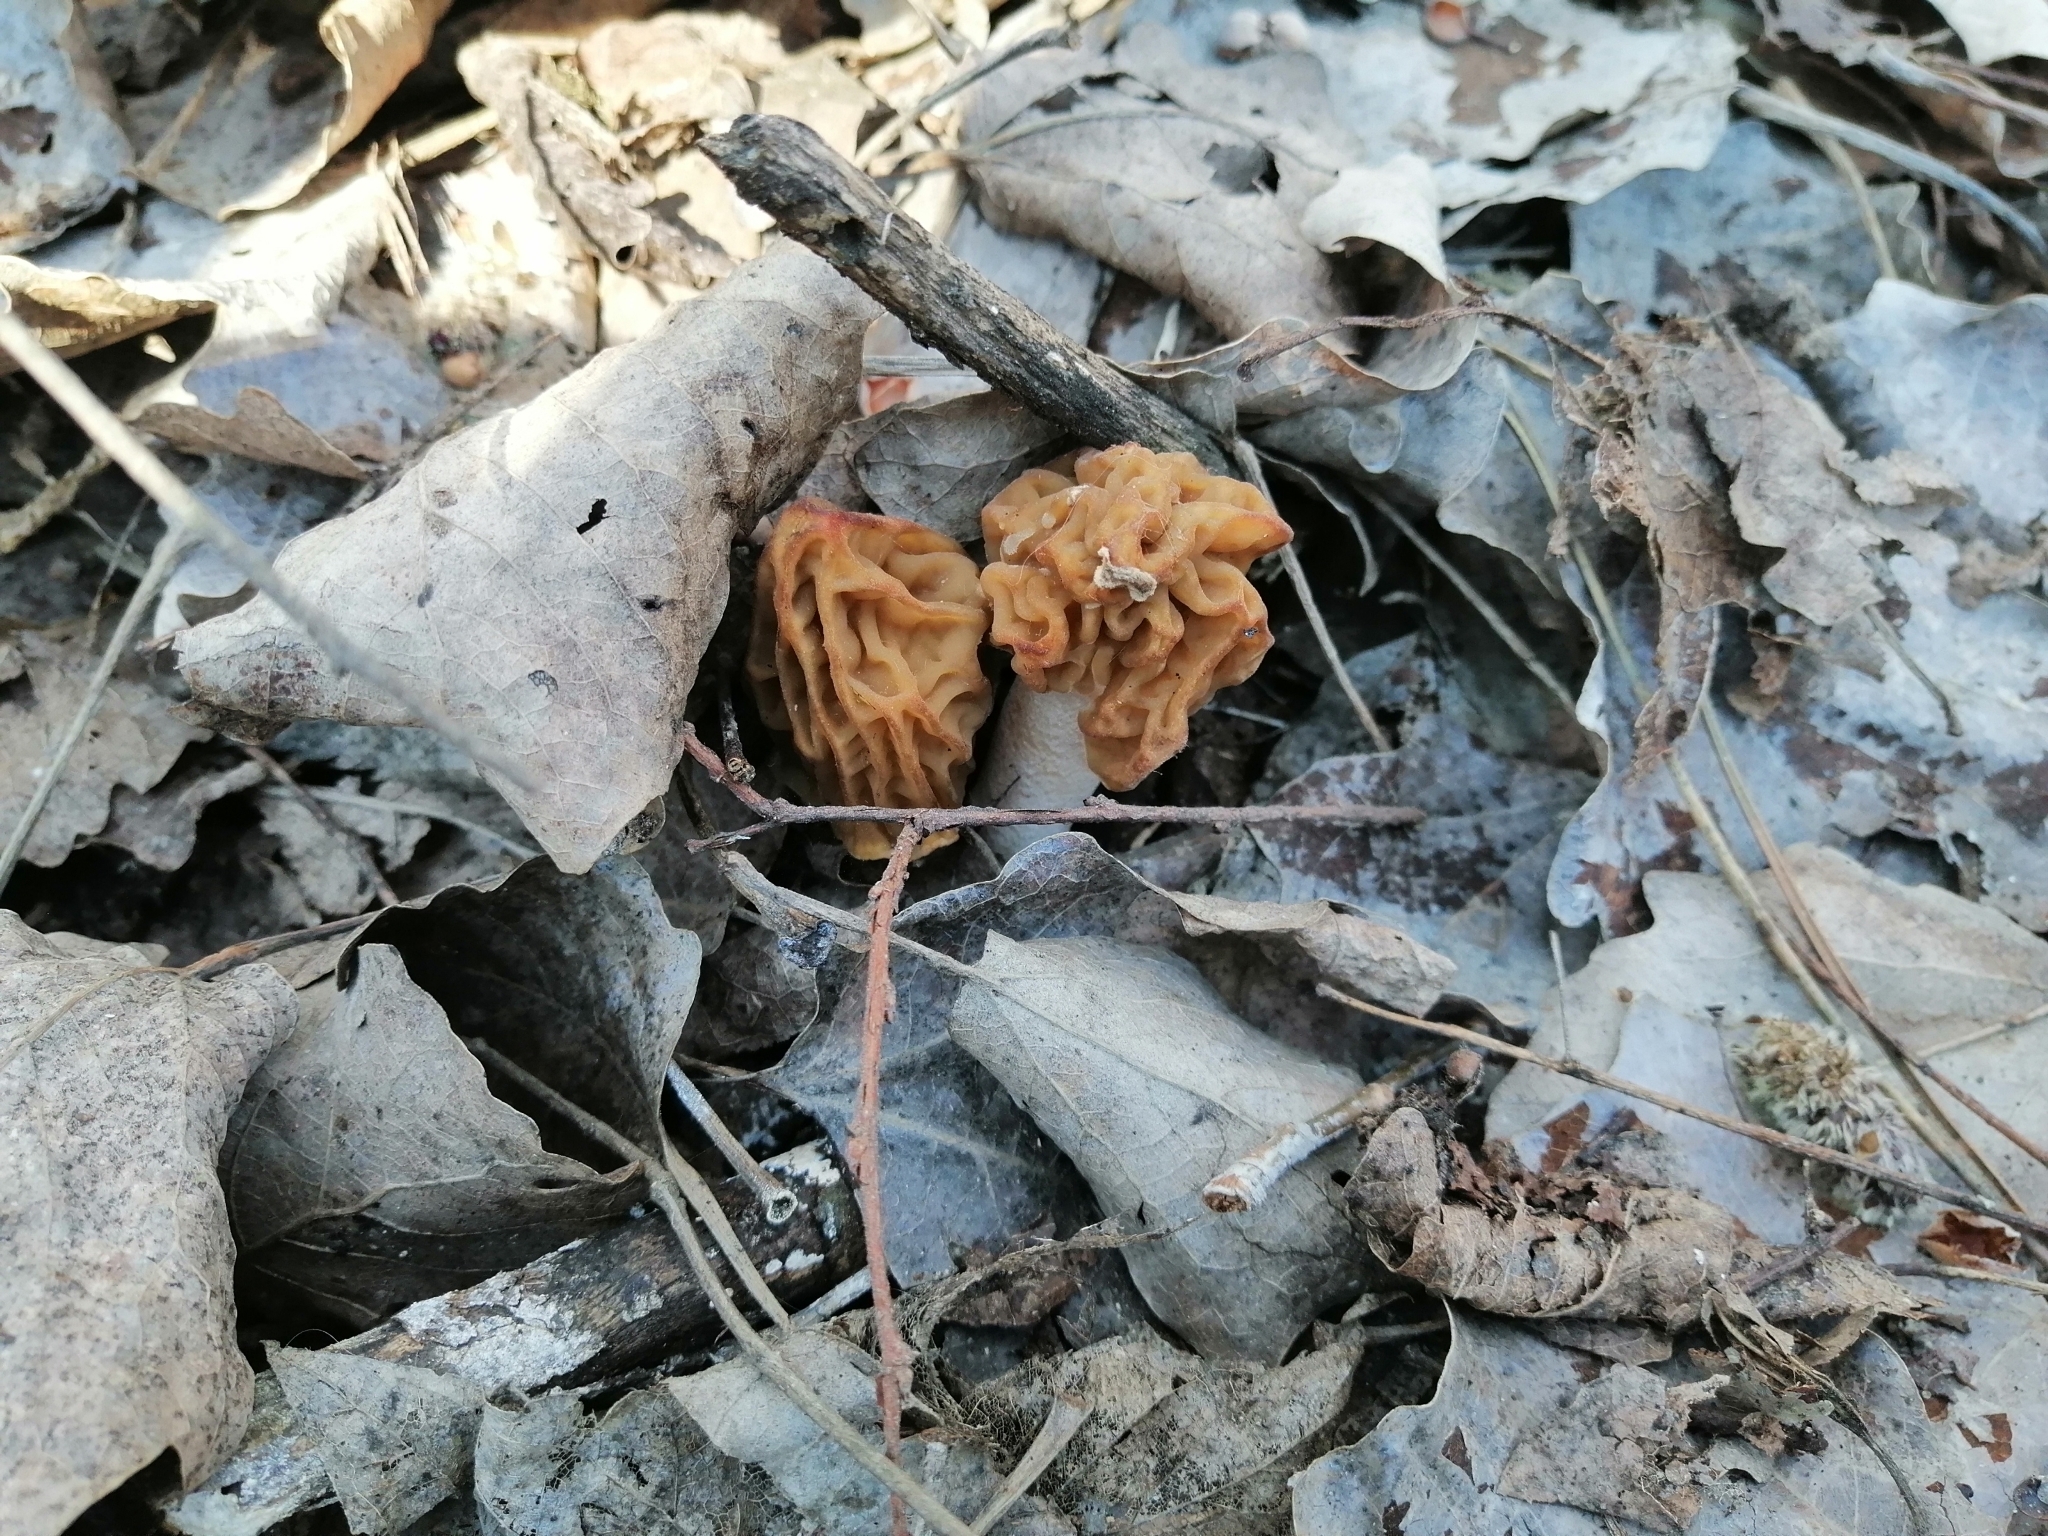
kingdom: Fungi
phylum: Ascomycota
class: Pezizomycetes
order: Pezizales
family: Morchellaceae
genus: Verpa
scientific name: Verpa bohemica
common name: Wrinkled thimble morel
